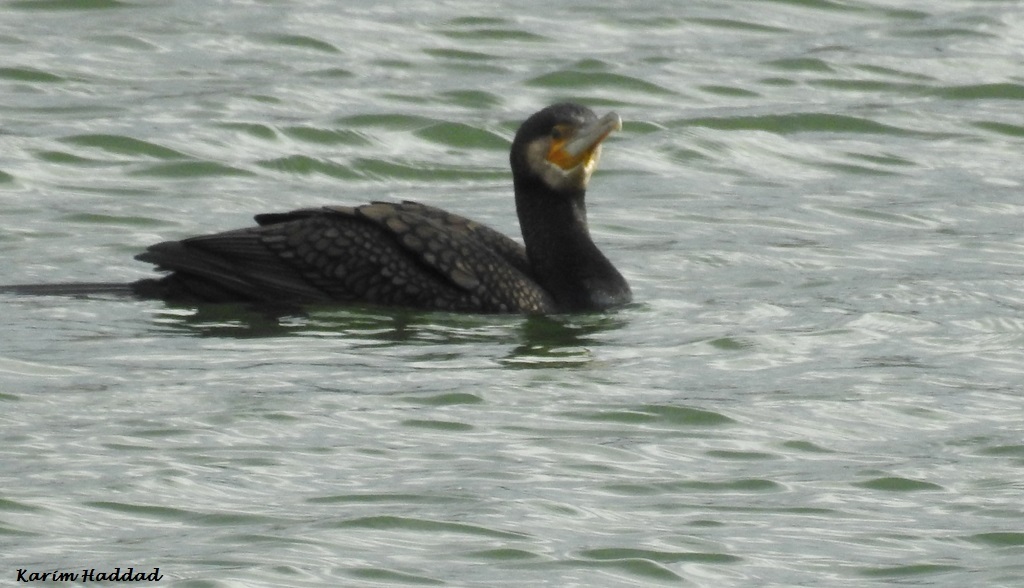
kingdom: Animalia
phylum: Chordata
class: Aves
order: Suliformes
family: Phalacrocoracidae
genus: Phalacrocorax
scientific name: Phalacrocorax carbo
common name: Great cormorant
